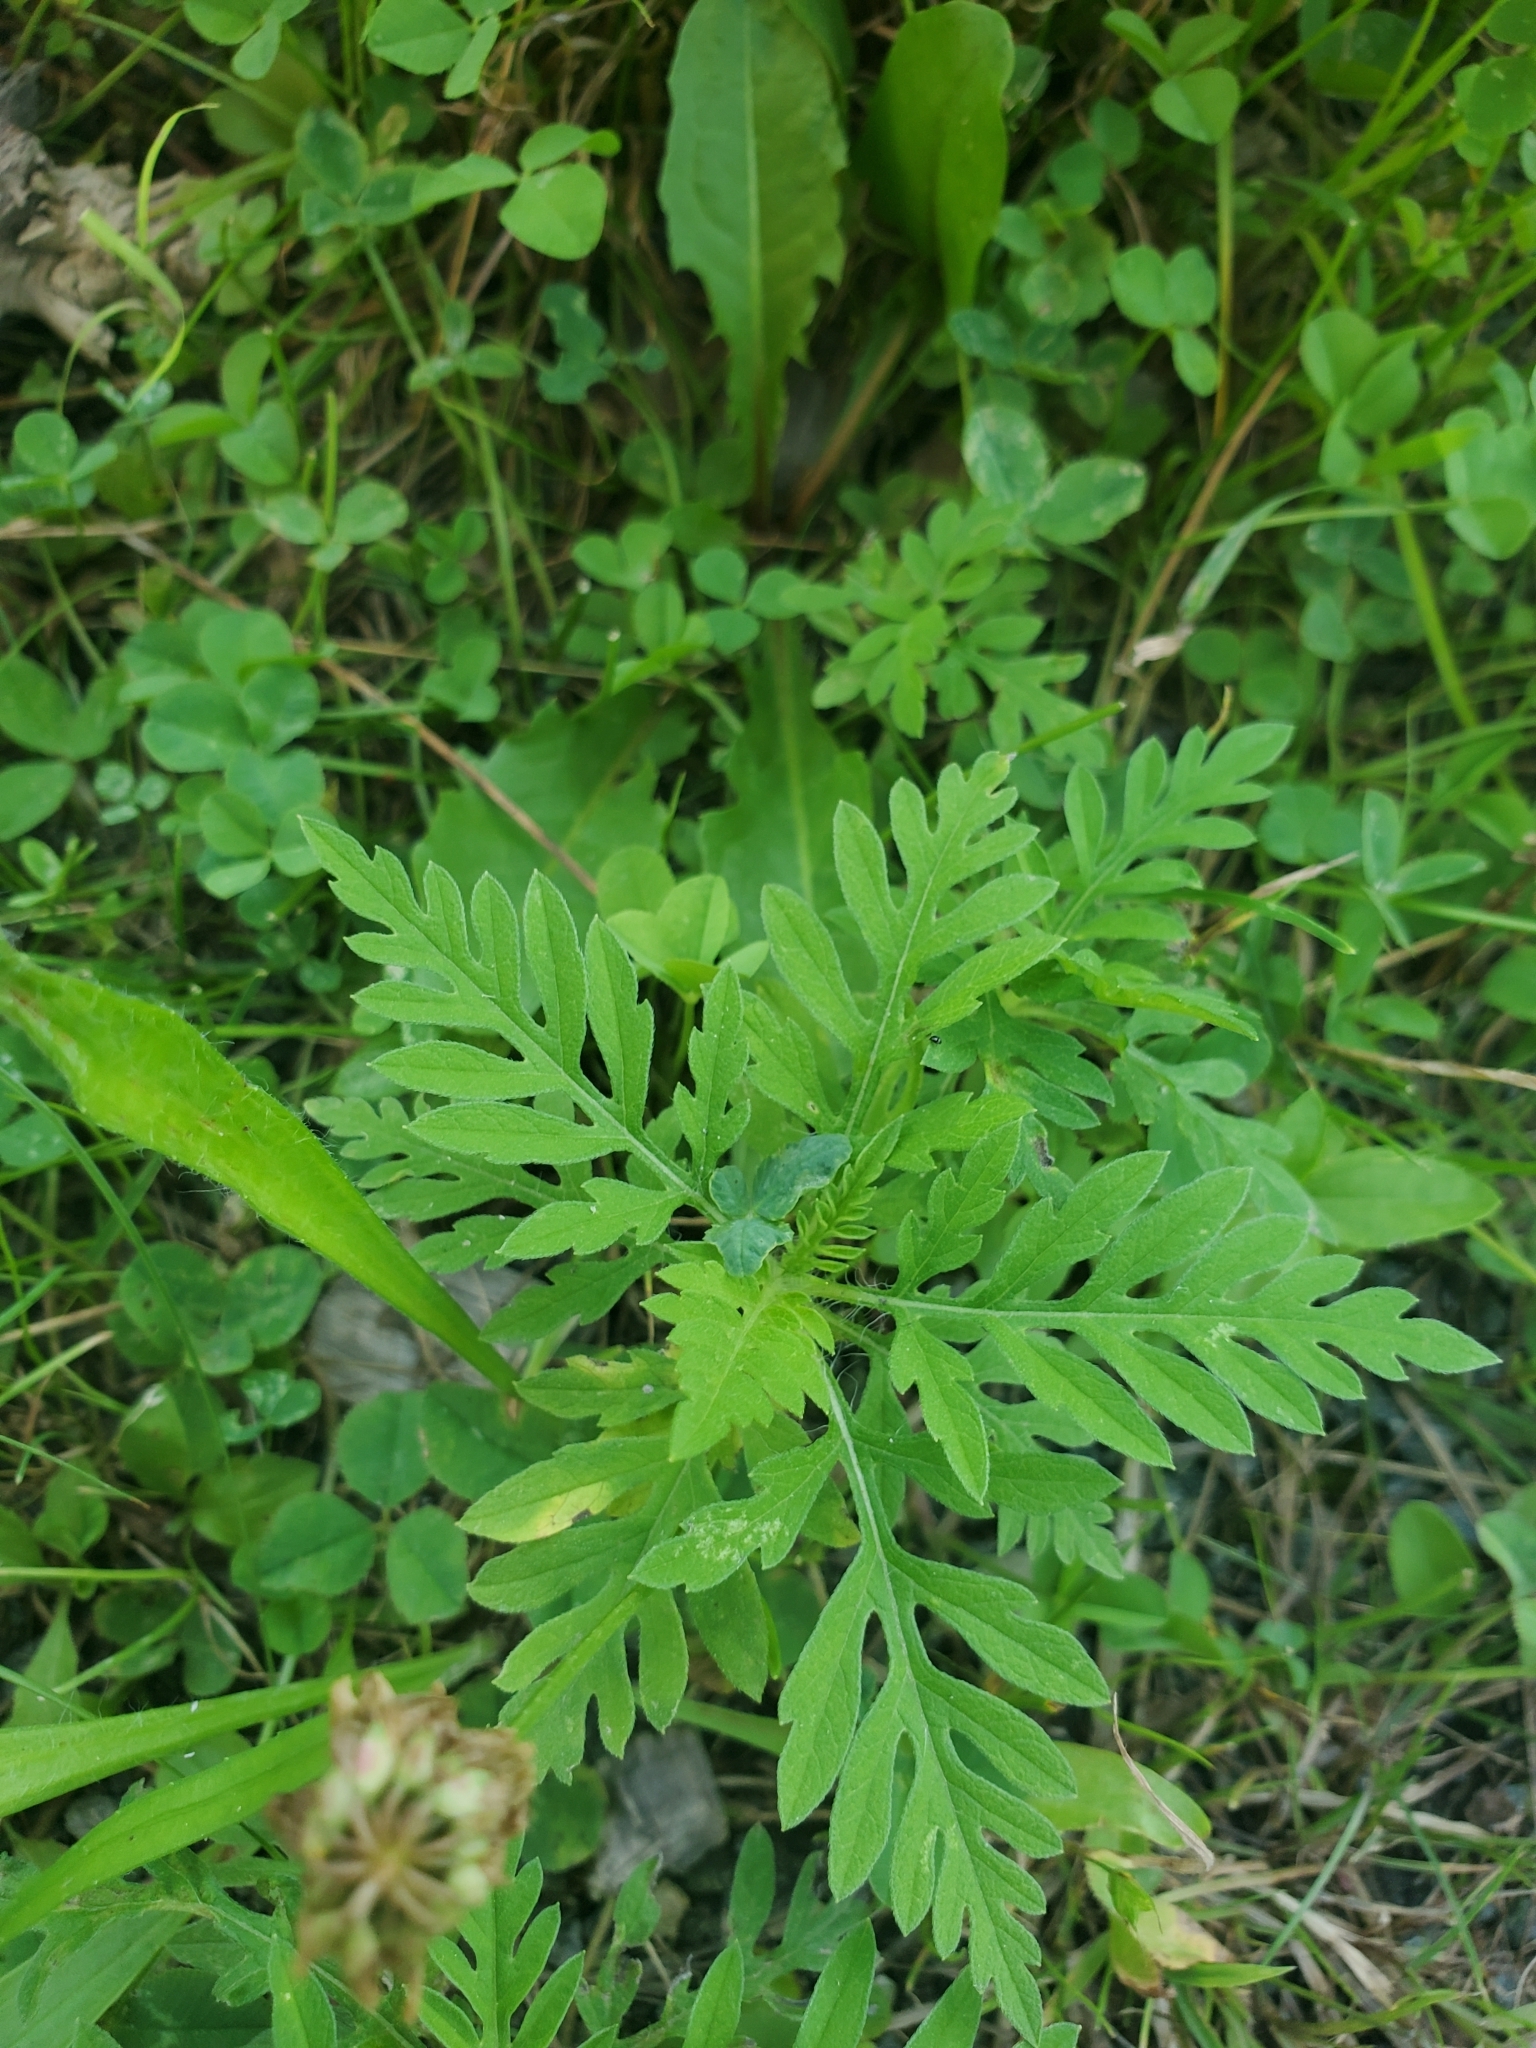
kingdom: Plantae
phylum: Tracheophyta
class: Magnoliopsida
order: Asterales
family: Asteraceae
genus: Ambrosia
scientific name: Ambrosia artemisiifolia
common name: Annual ragweed
